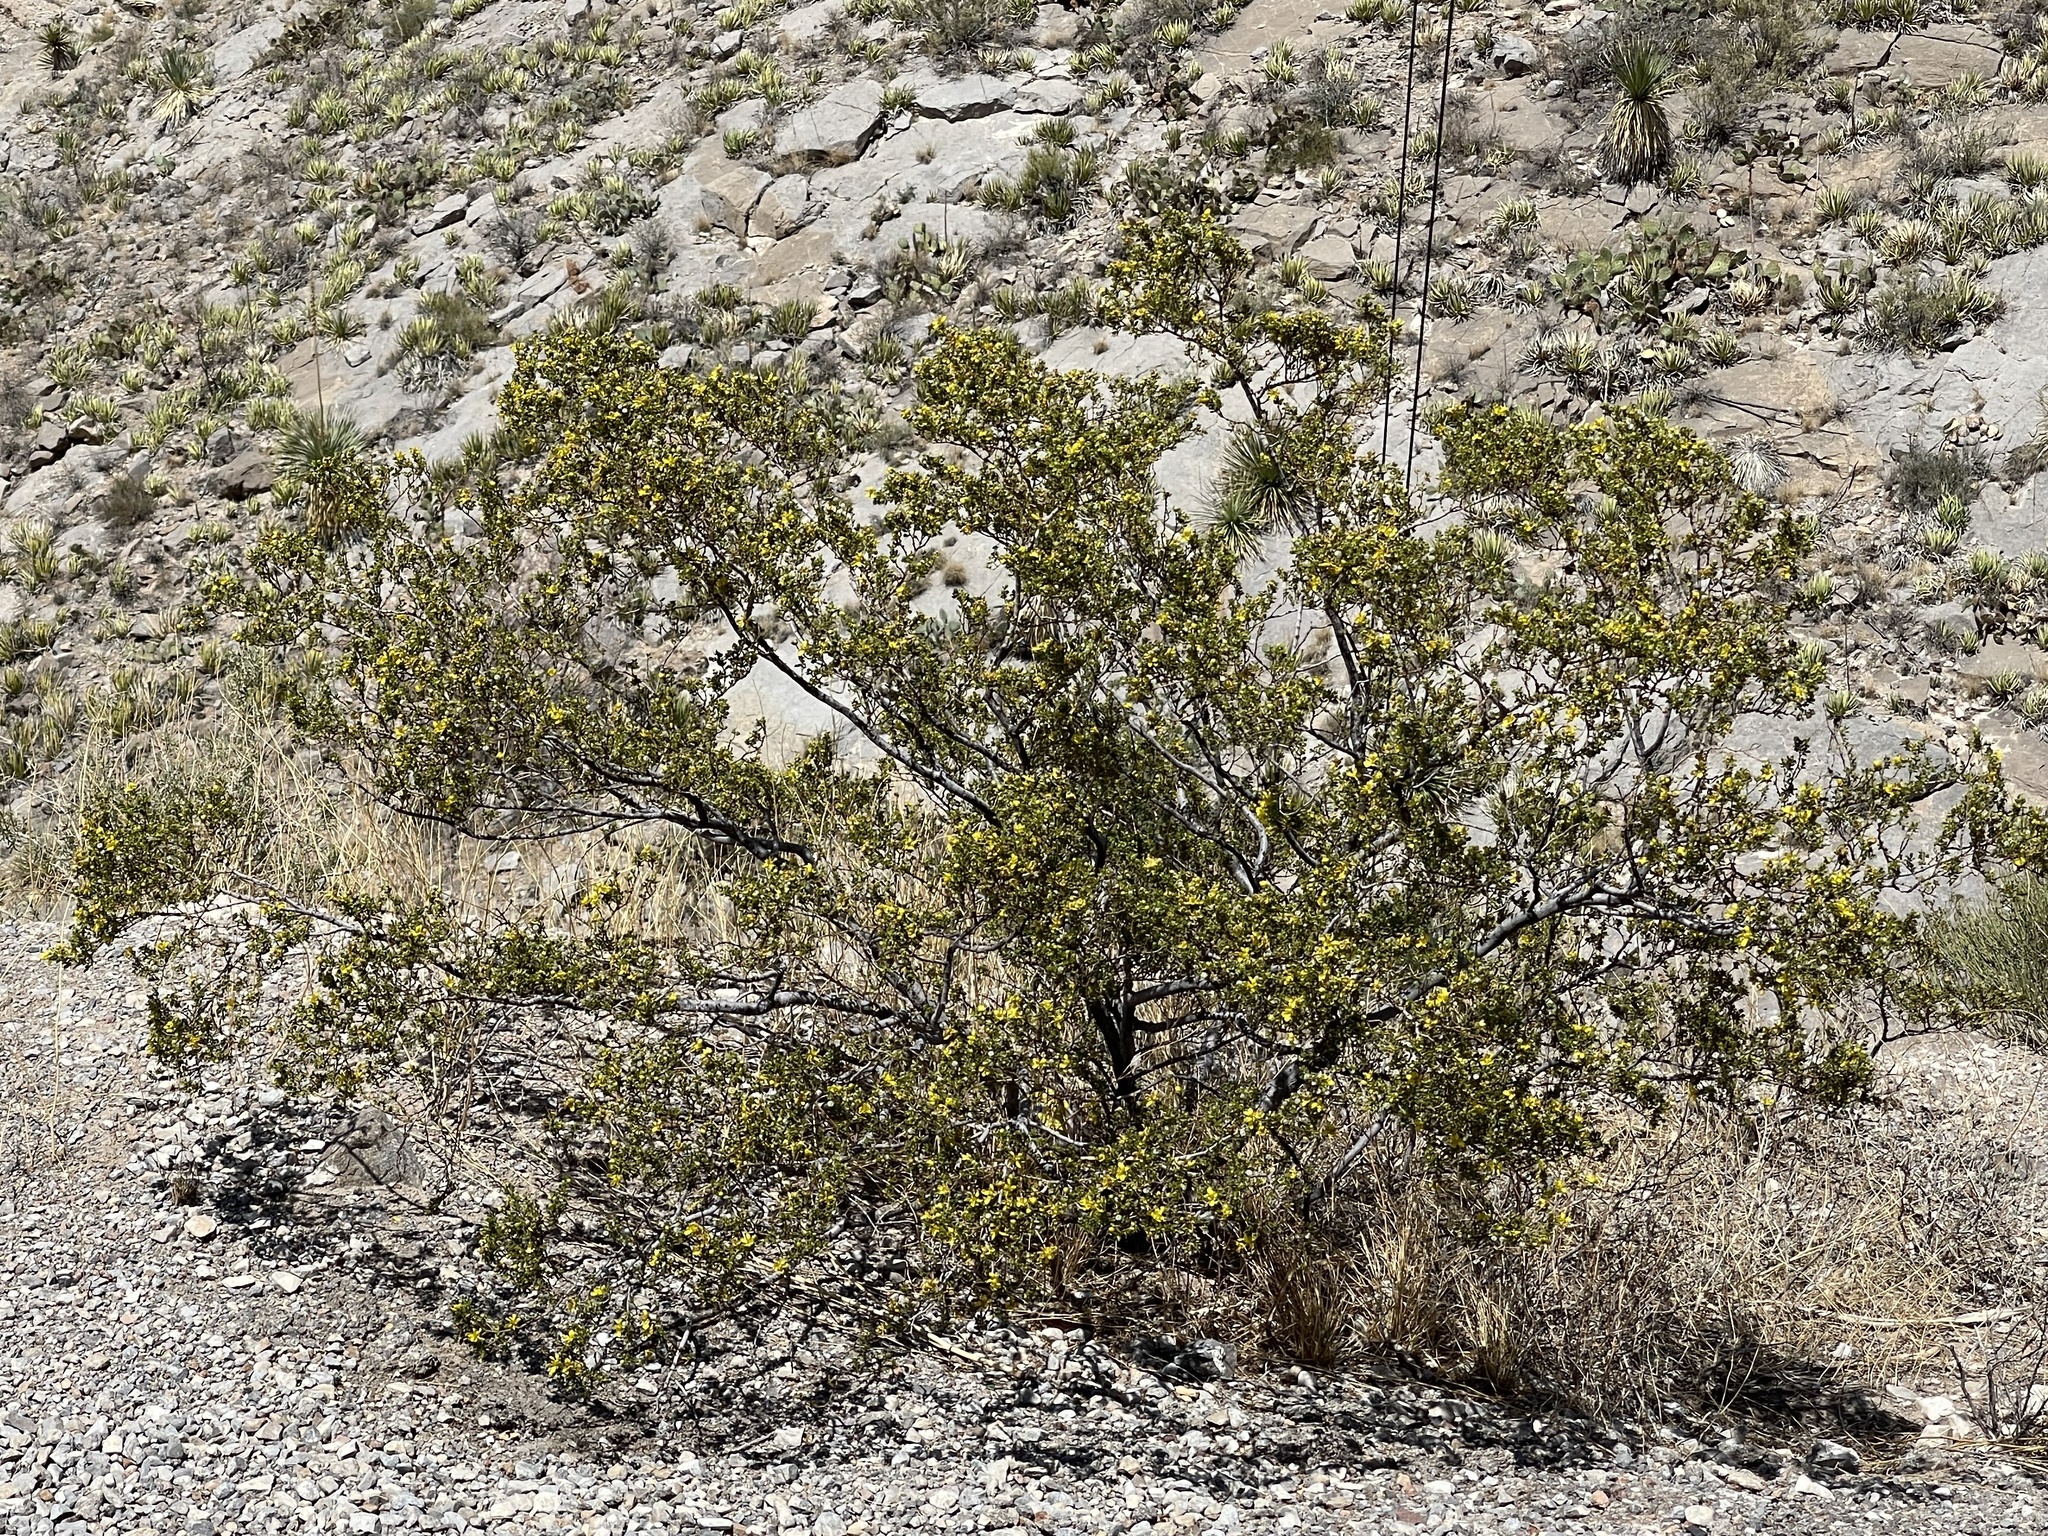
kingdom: Plantae
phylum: Tracheophyta
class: Magnoliopsida
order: Zygophyllales
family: Zygophyllaceae
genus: Larrea
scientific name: Larrea tridentata
